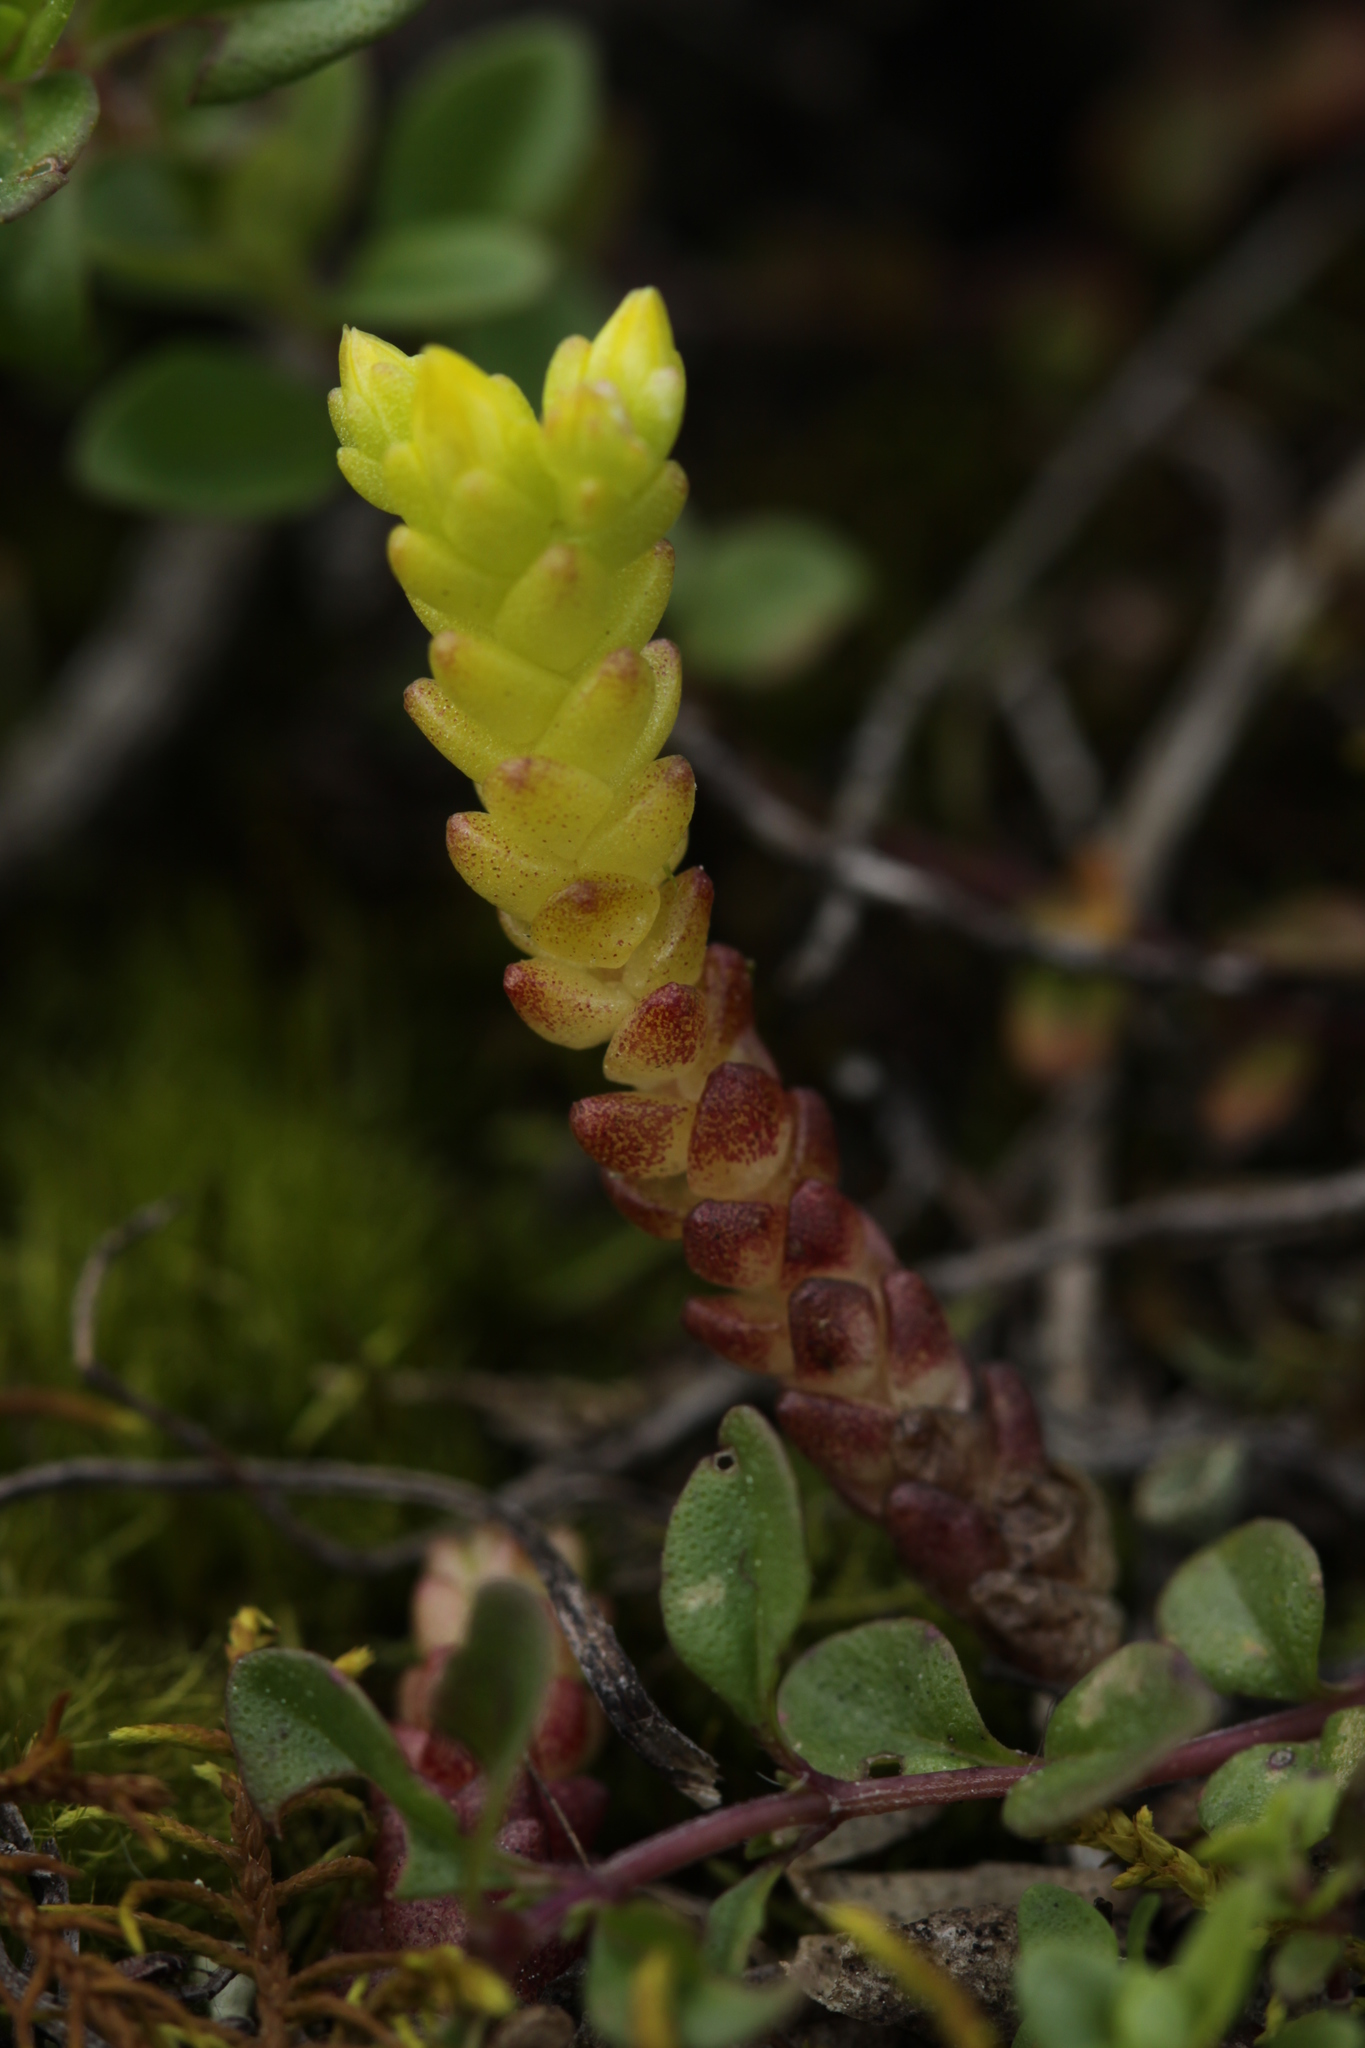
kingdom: Plantae
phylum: Tracheophyta
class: Magnoliopsida
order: Saxifragales
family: Crassulaceae
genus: Sedum
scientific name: Sedum acre
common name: Biting stonecrop
